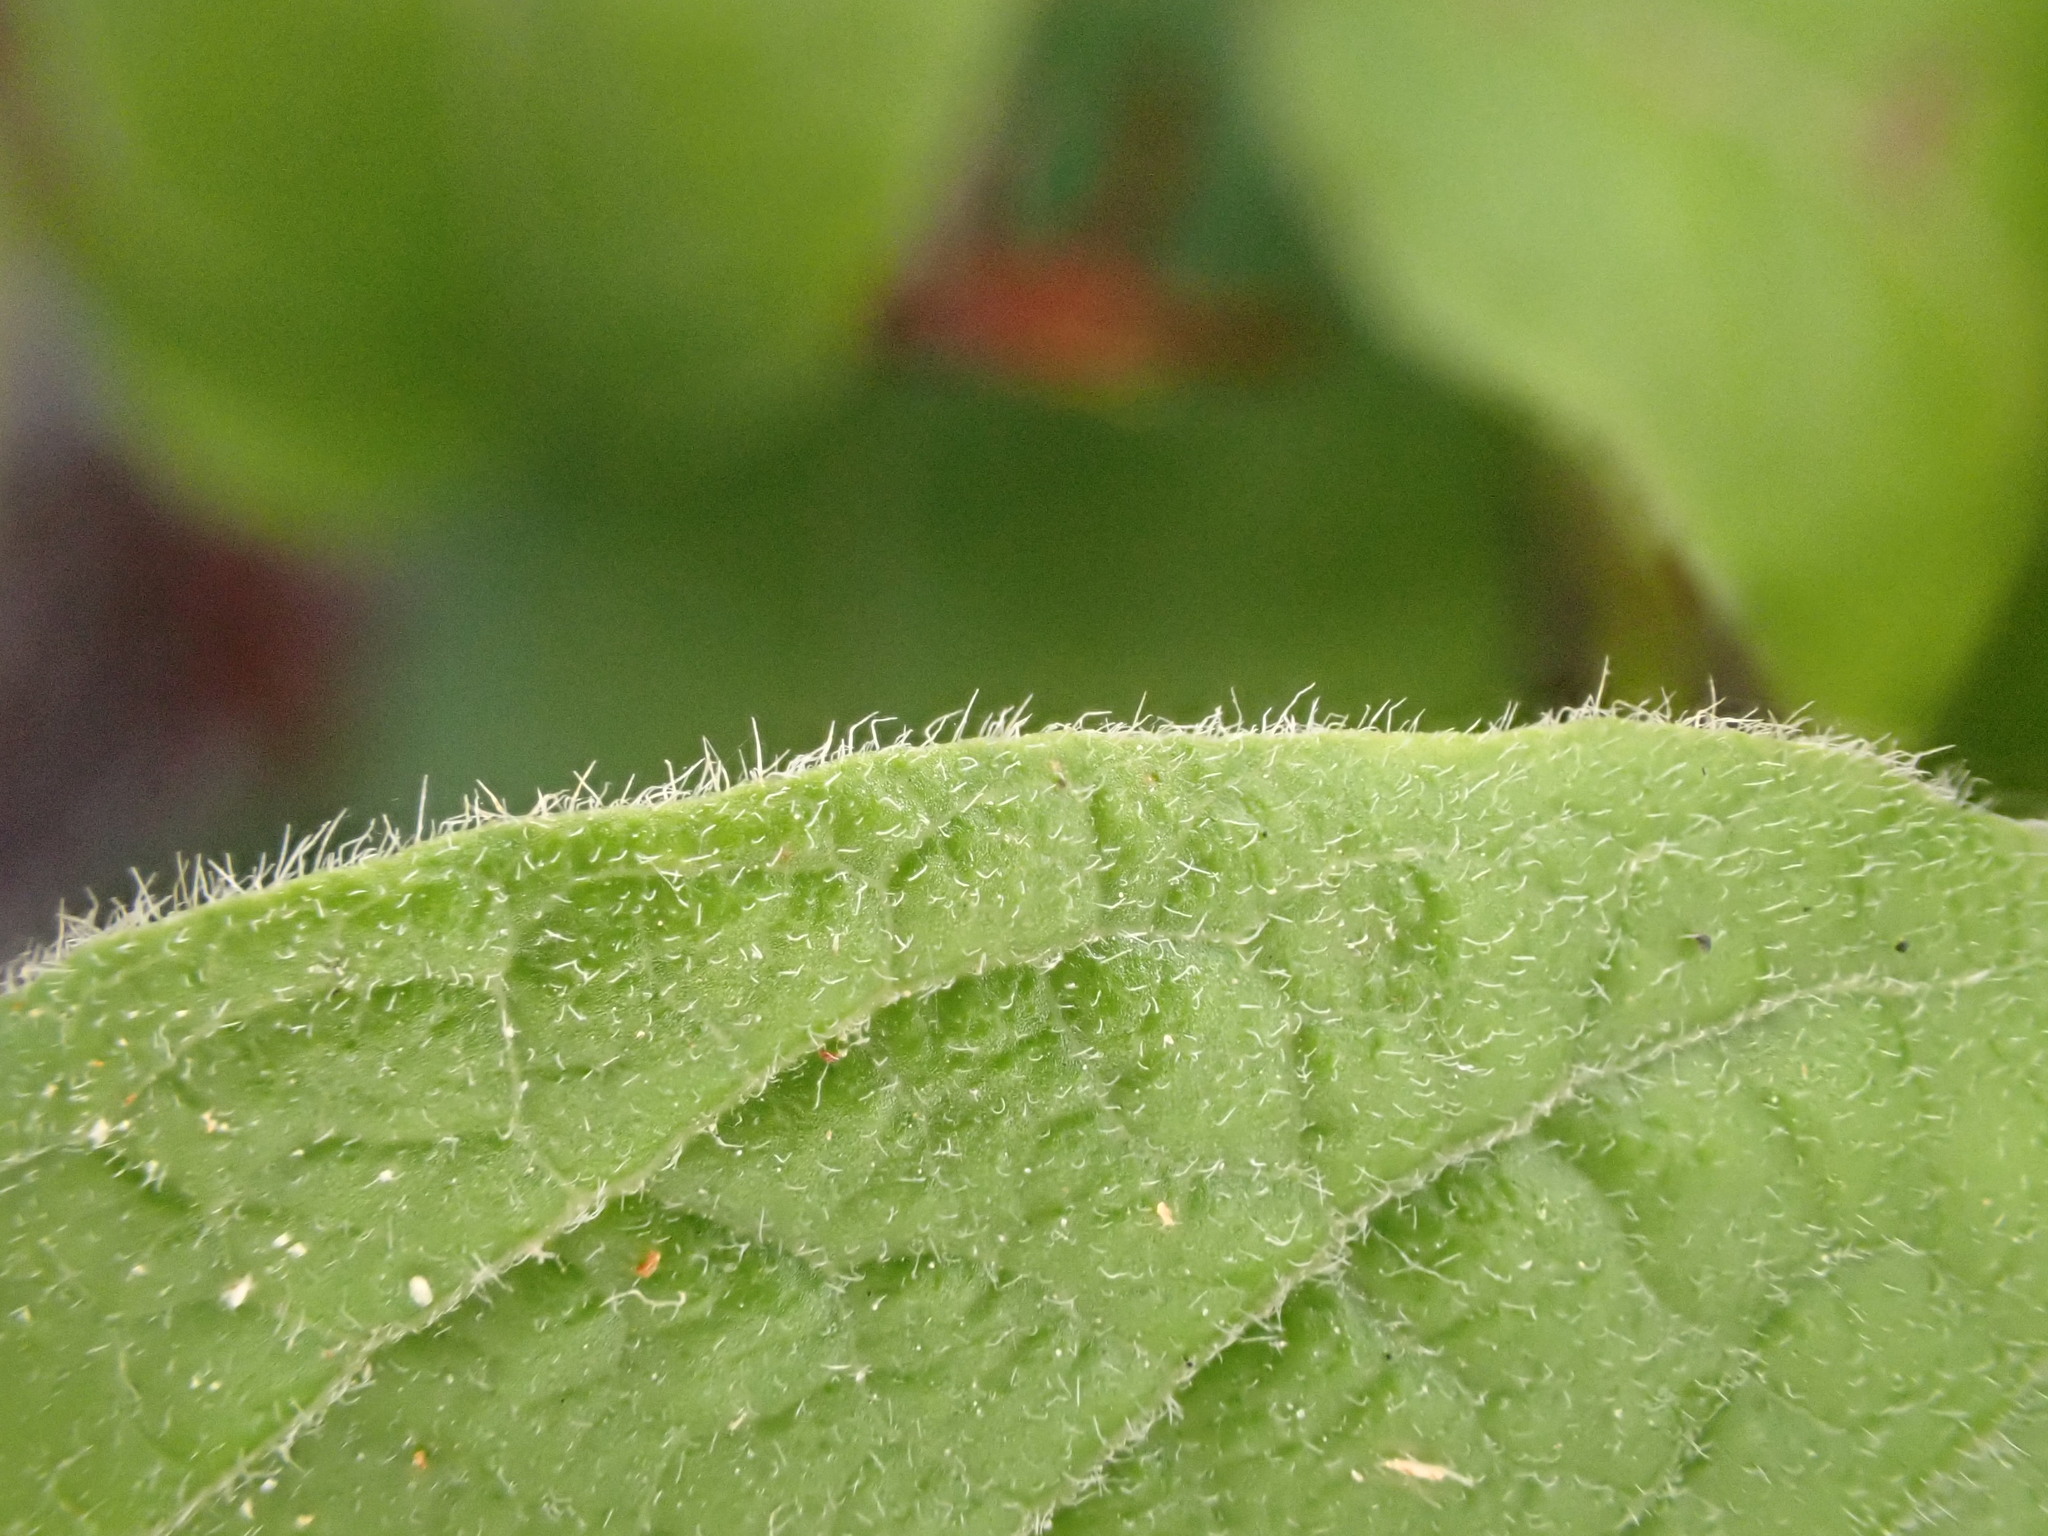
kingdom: Plantae
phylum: Tracheophyta
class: Magnoliopsida
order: Ericales
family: Ericaceae
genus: Vaccinium
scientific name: Vaccinium myrtilloides
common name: Canada blueberry
